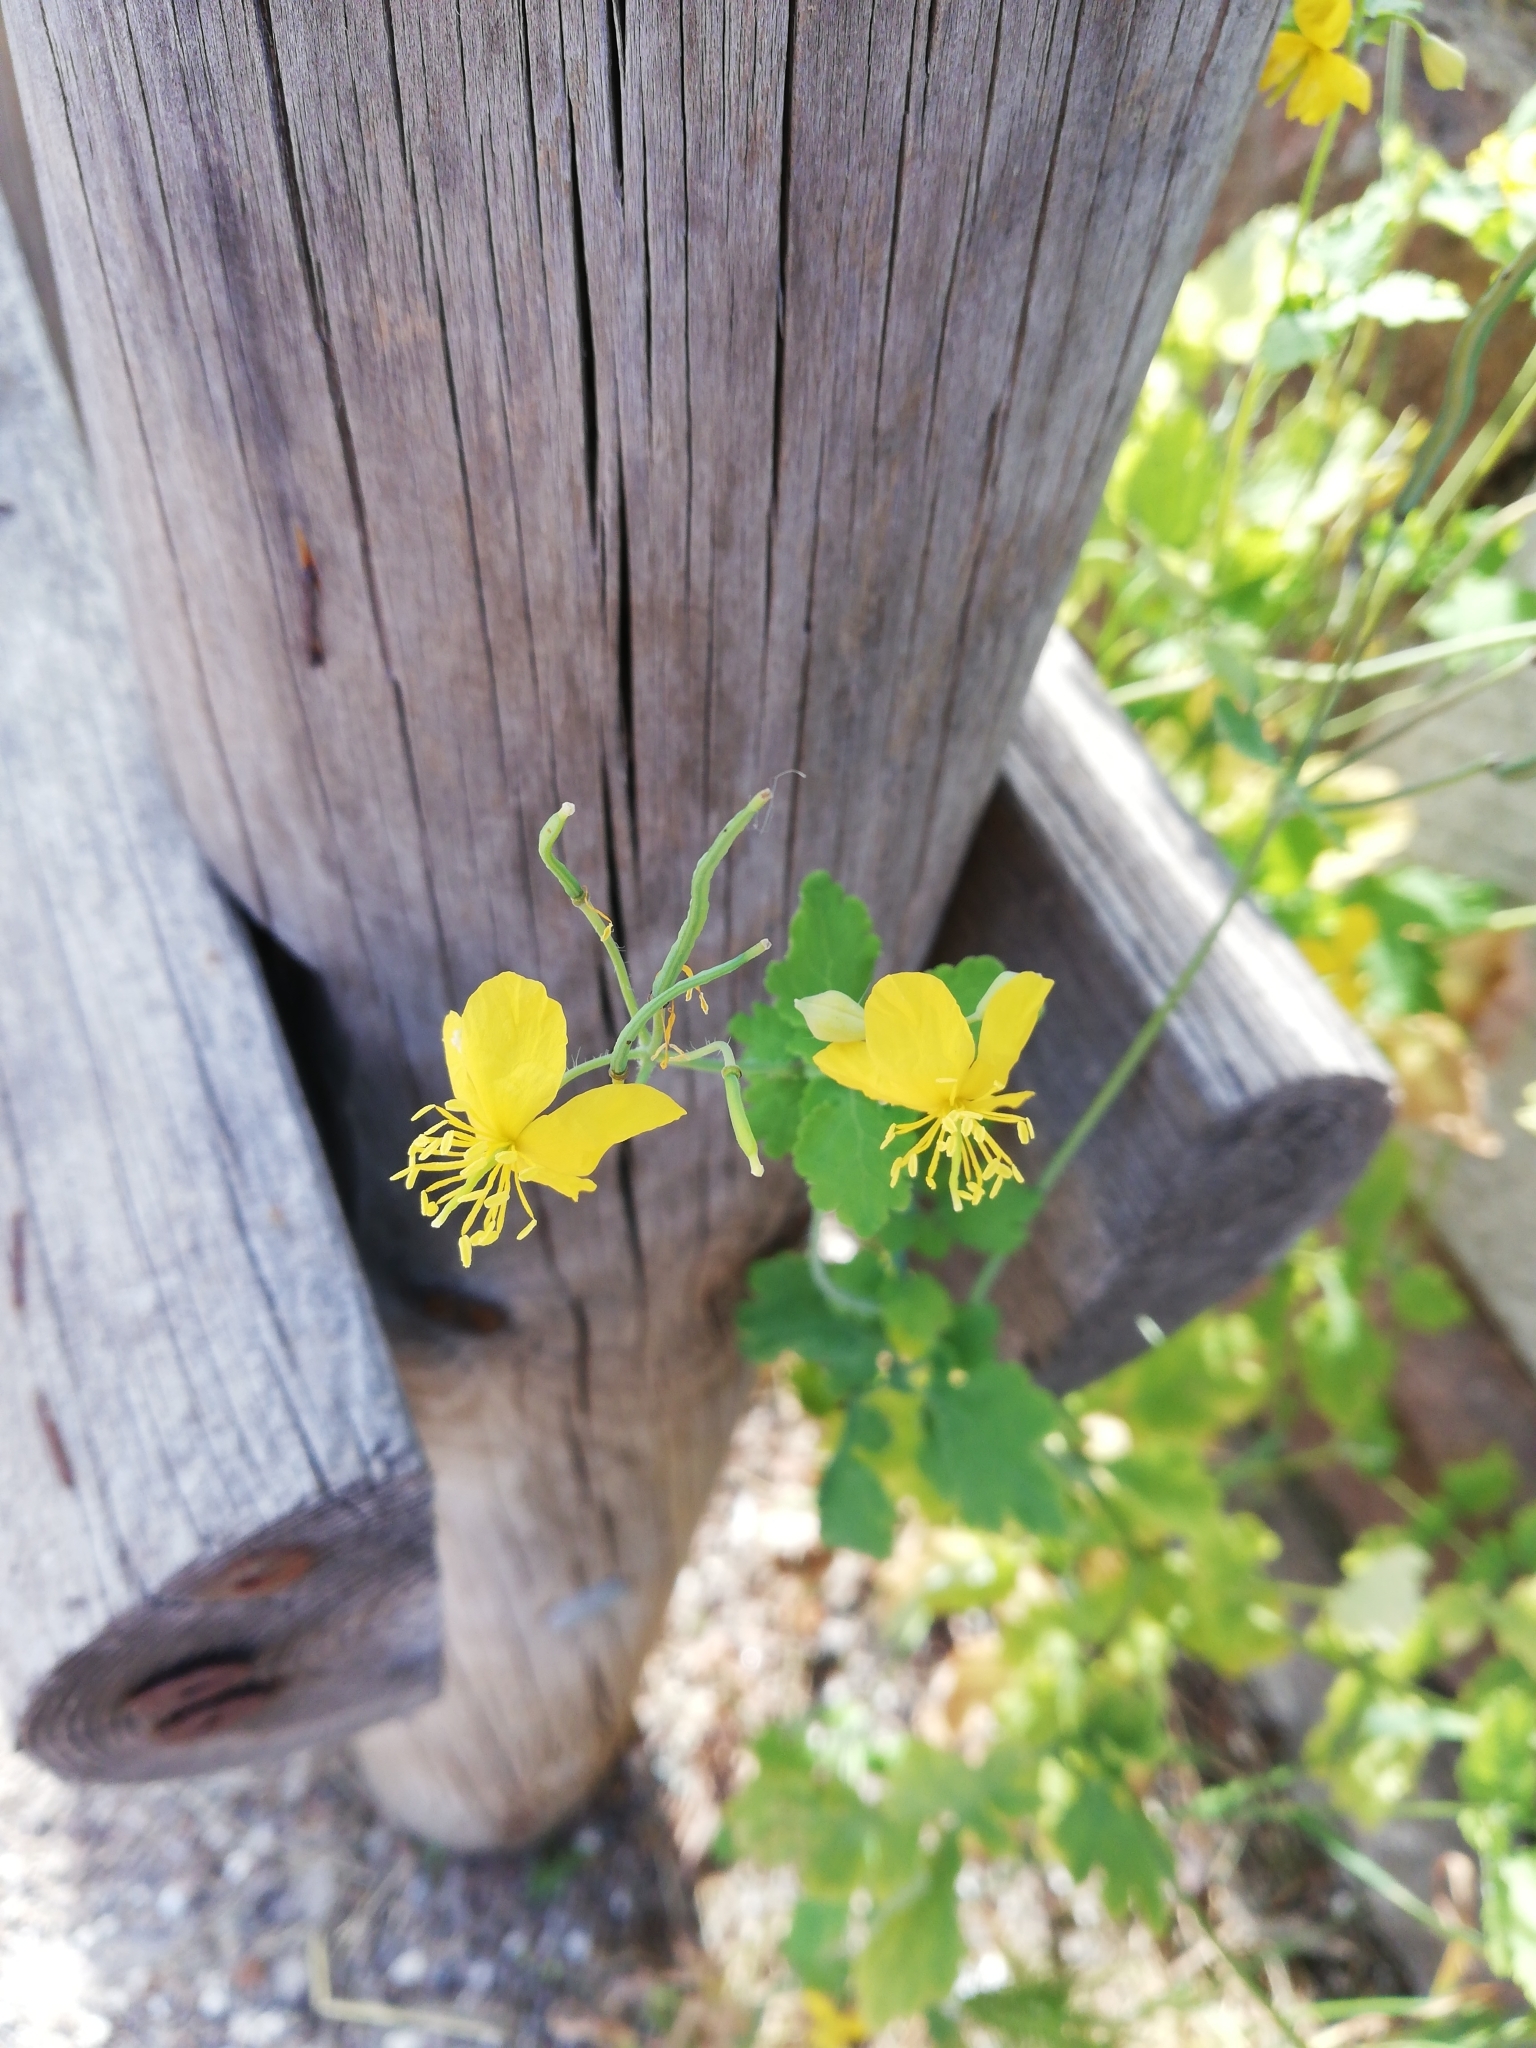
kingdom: Plantae
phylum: Tracheophyta
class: Magnoliopsida
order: Ranunculales
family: Papaveraceae
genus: Chelidonium
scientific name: Chelidonium majus
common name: Greater celandine
